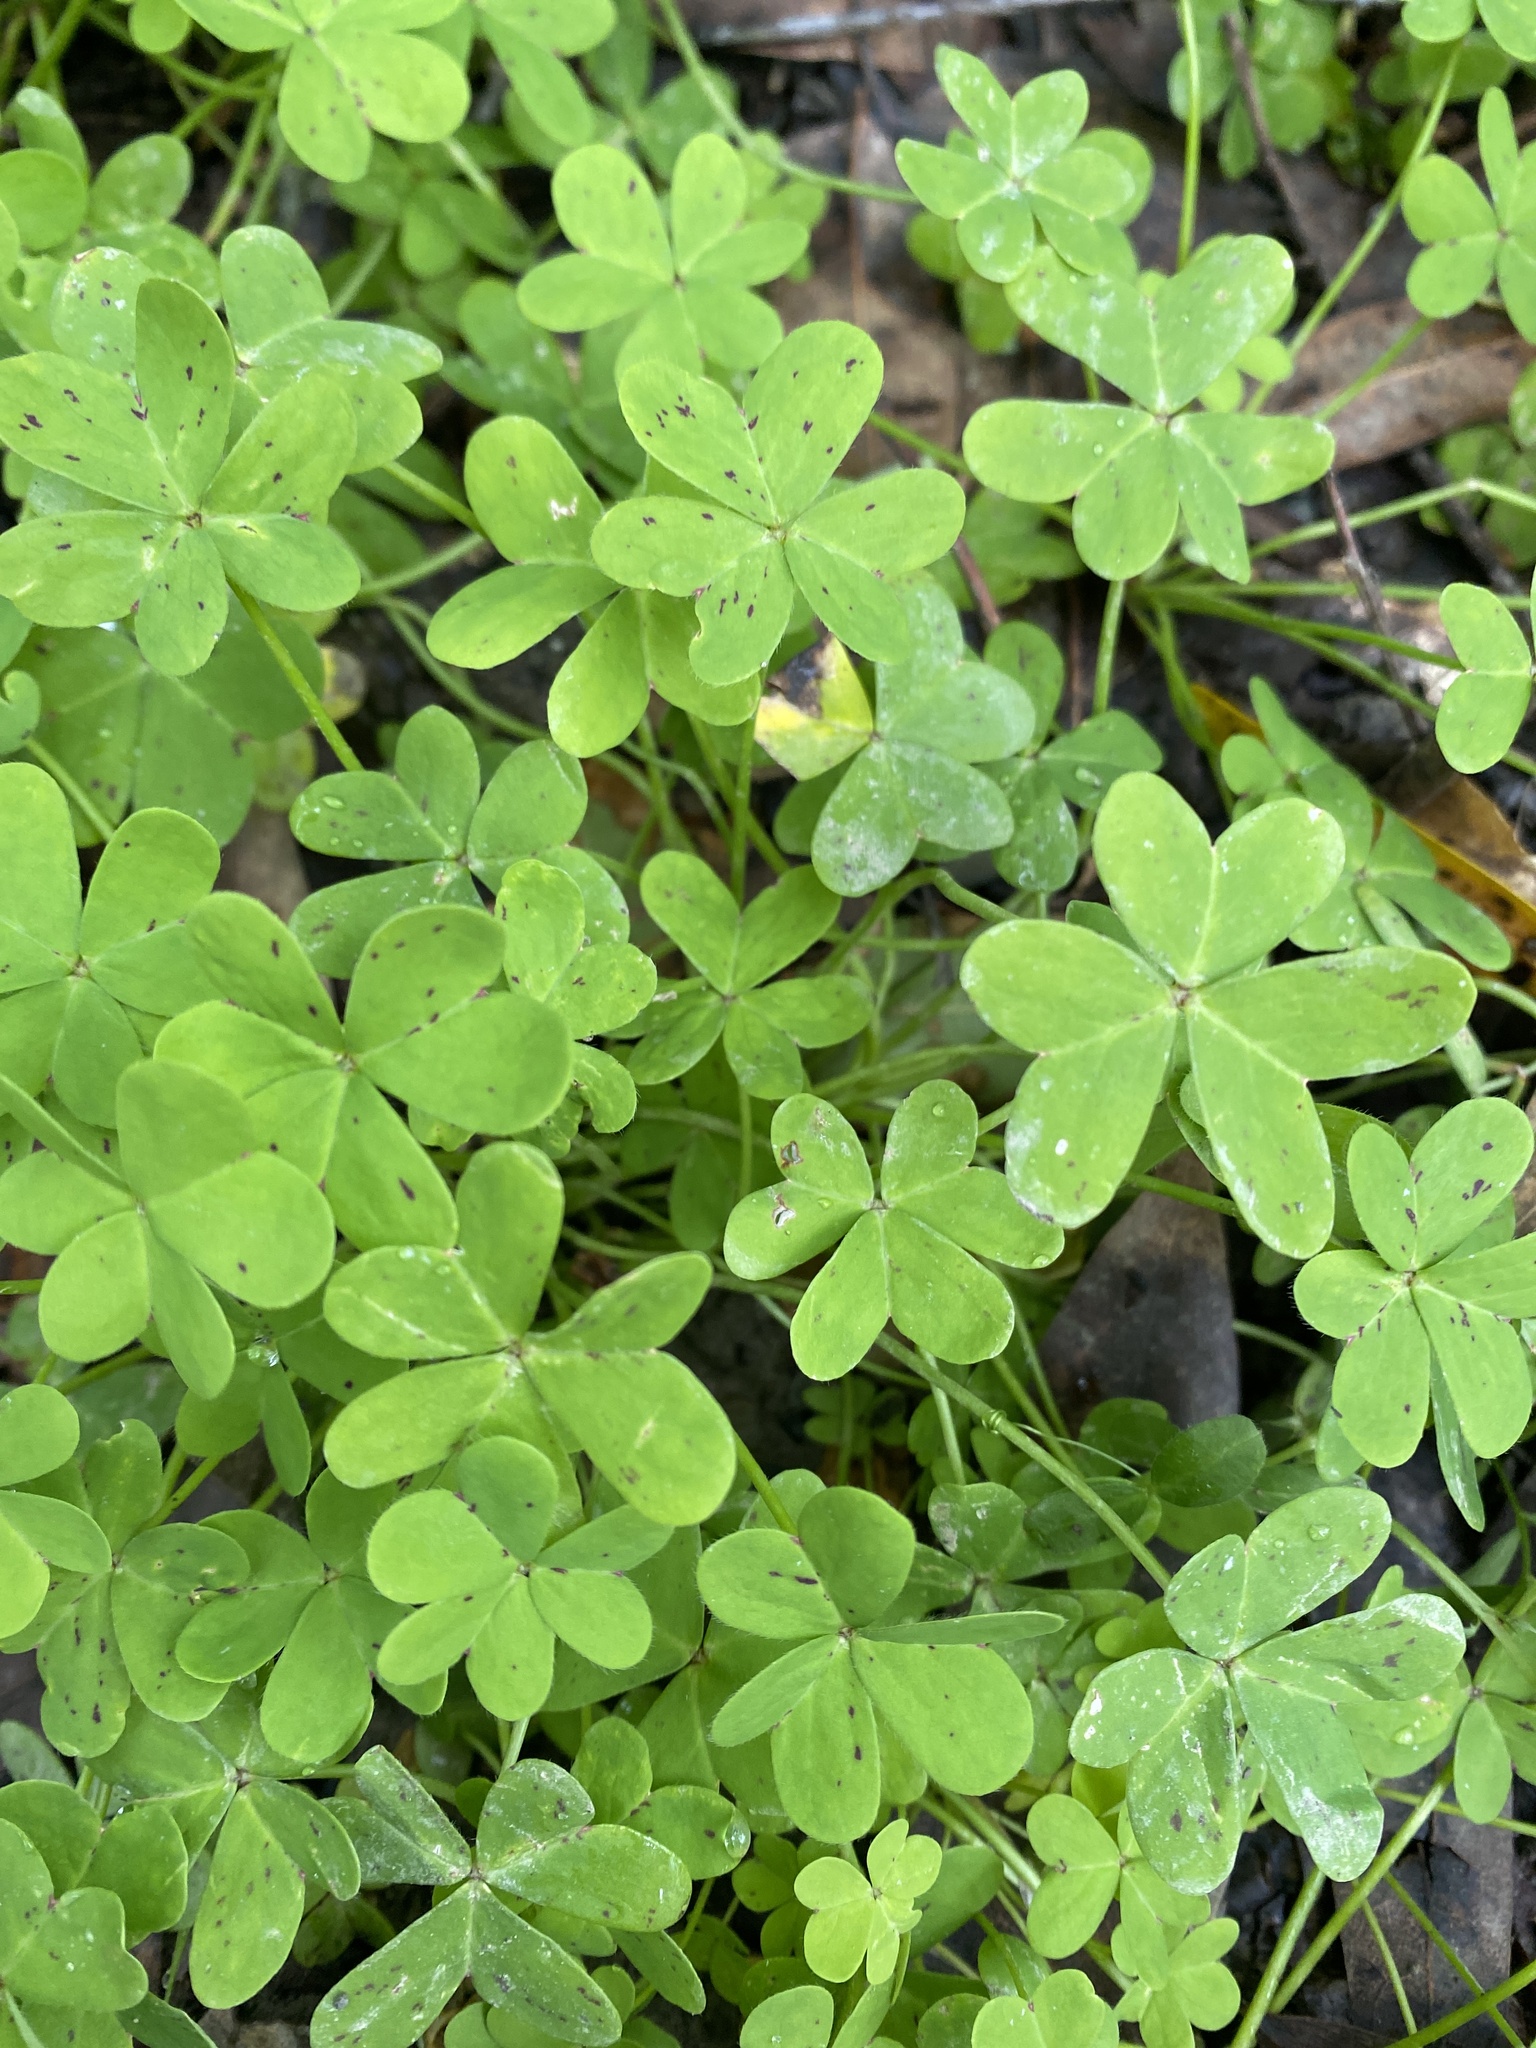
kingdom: Plantae
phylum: Tracheophyta
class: Magnoliopsida
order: Oxalidales
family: Oxalidaceae
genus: Oxalis
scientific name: Oxalis pes-caprae
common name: Bermuda-buttercup
